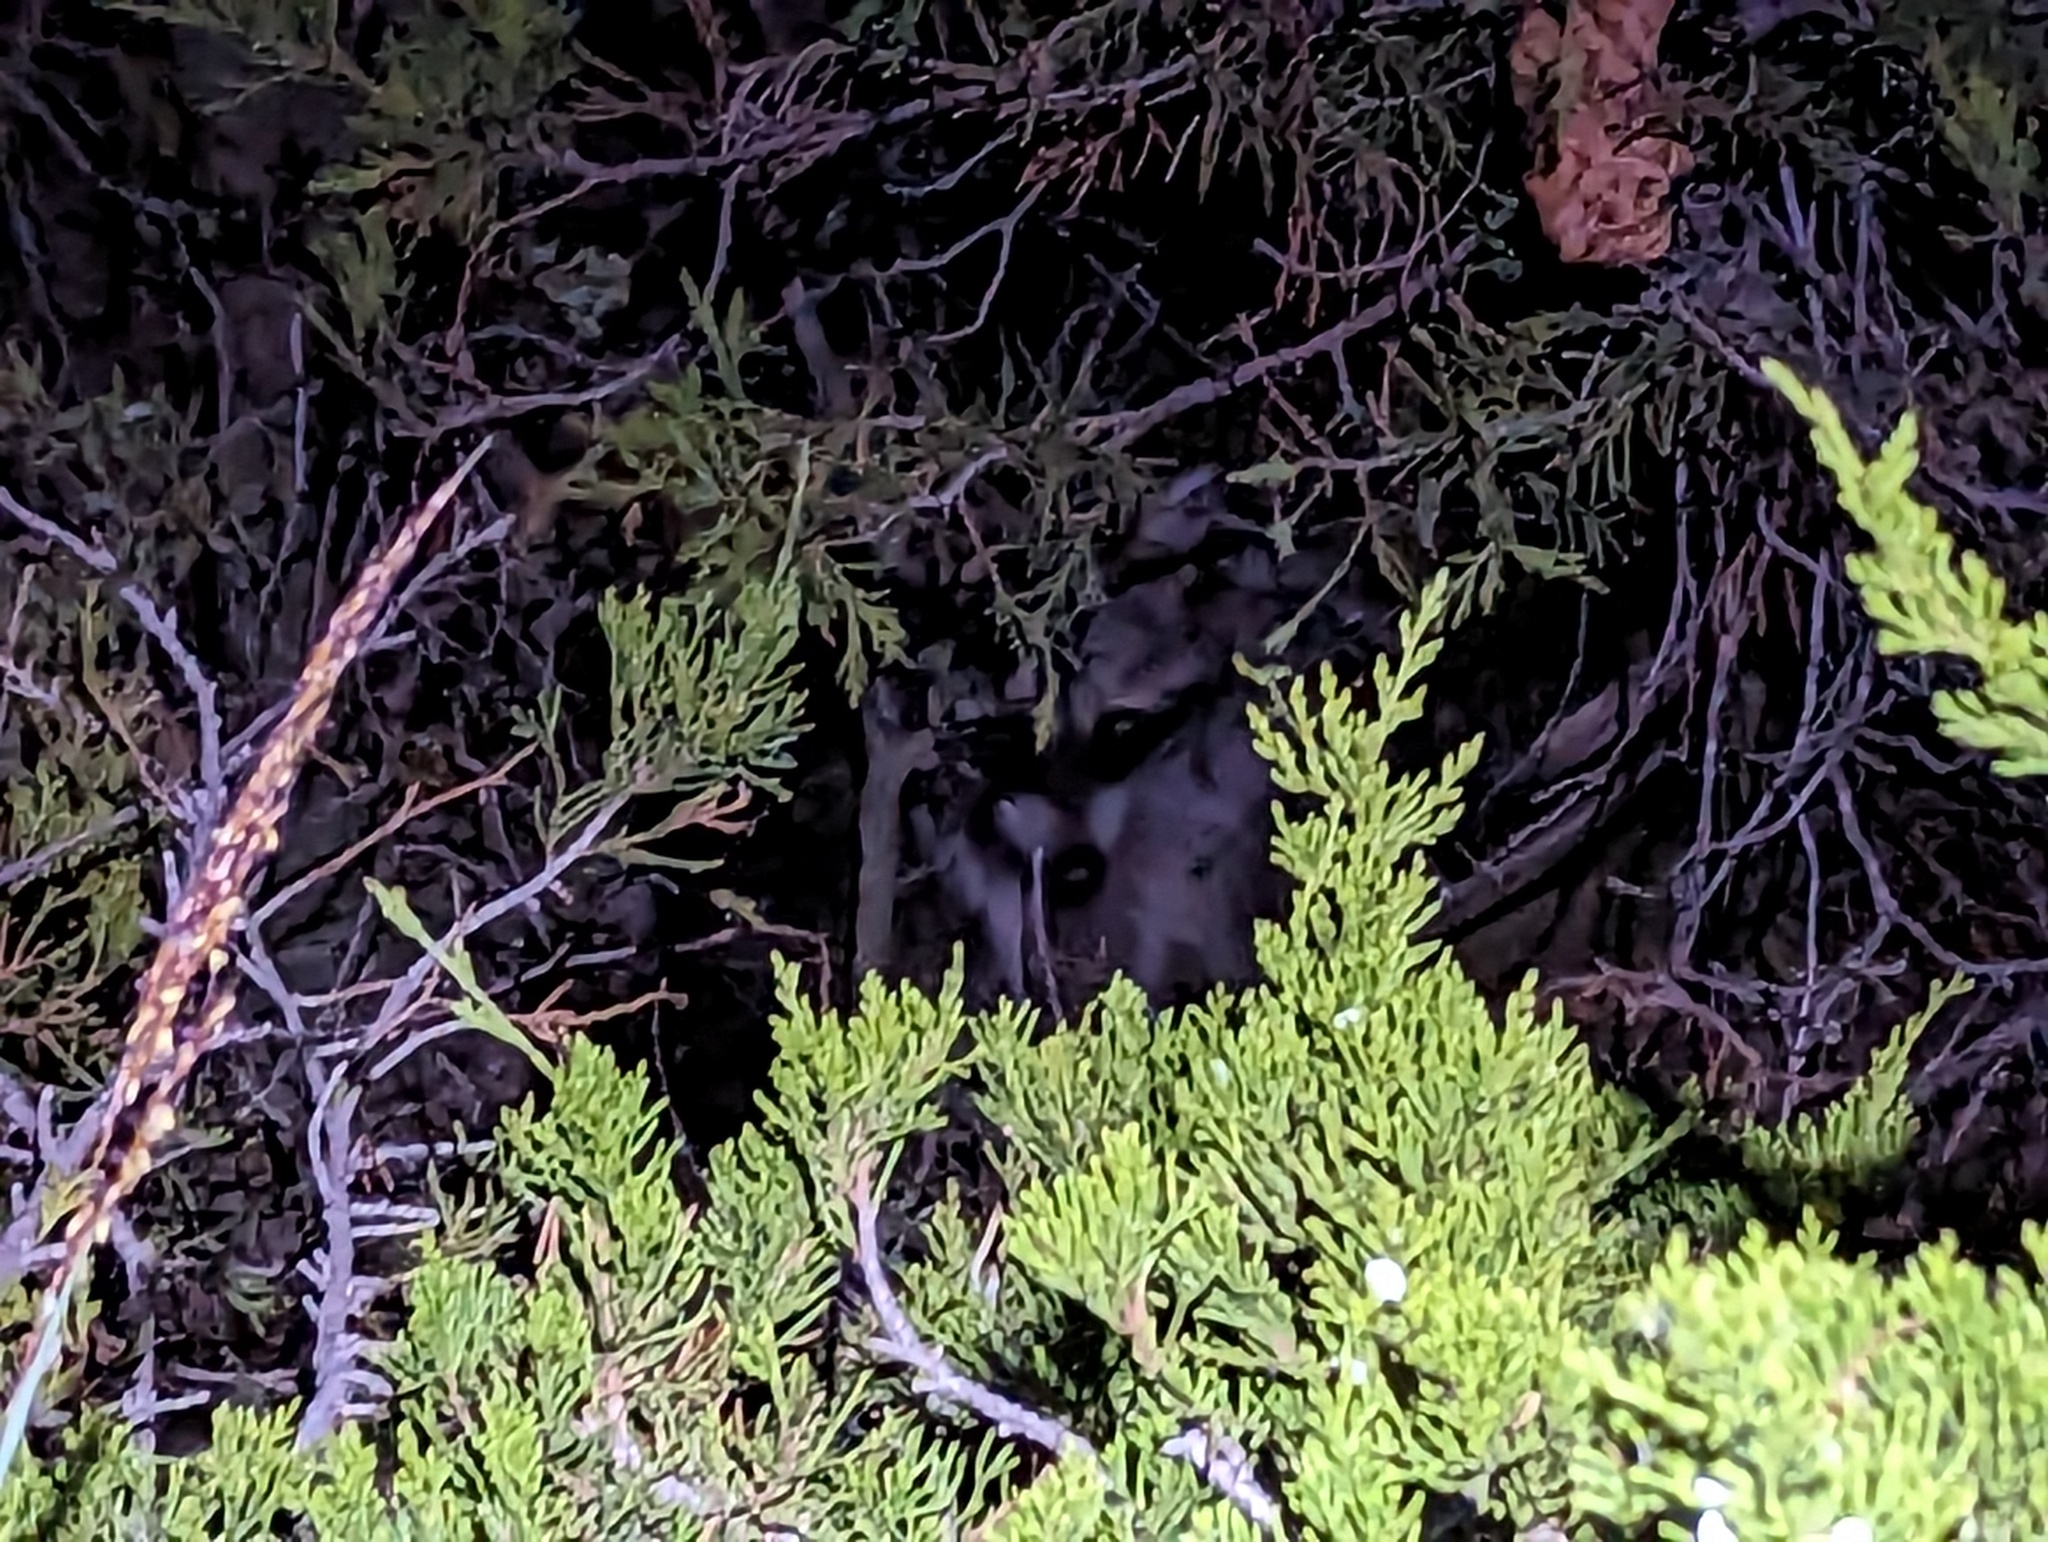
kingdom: Animalia
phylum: Chordata
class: Mammalia
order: Carnivora
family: Procyonidae
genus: Procyon
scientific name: Procyon lotor
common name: Raccoon
